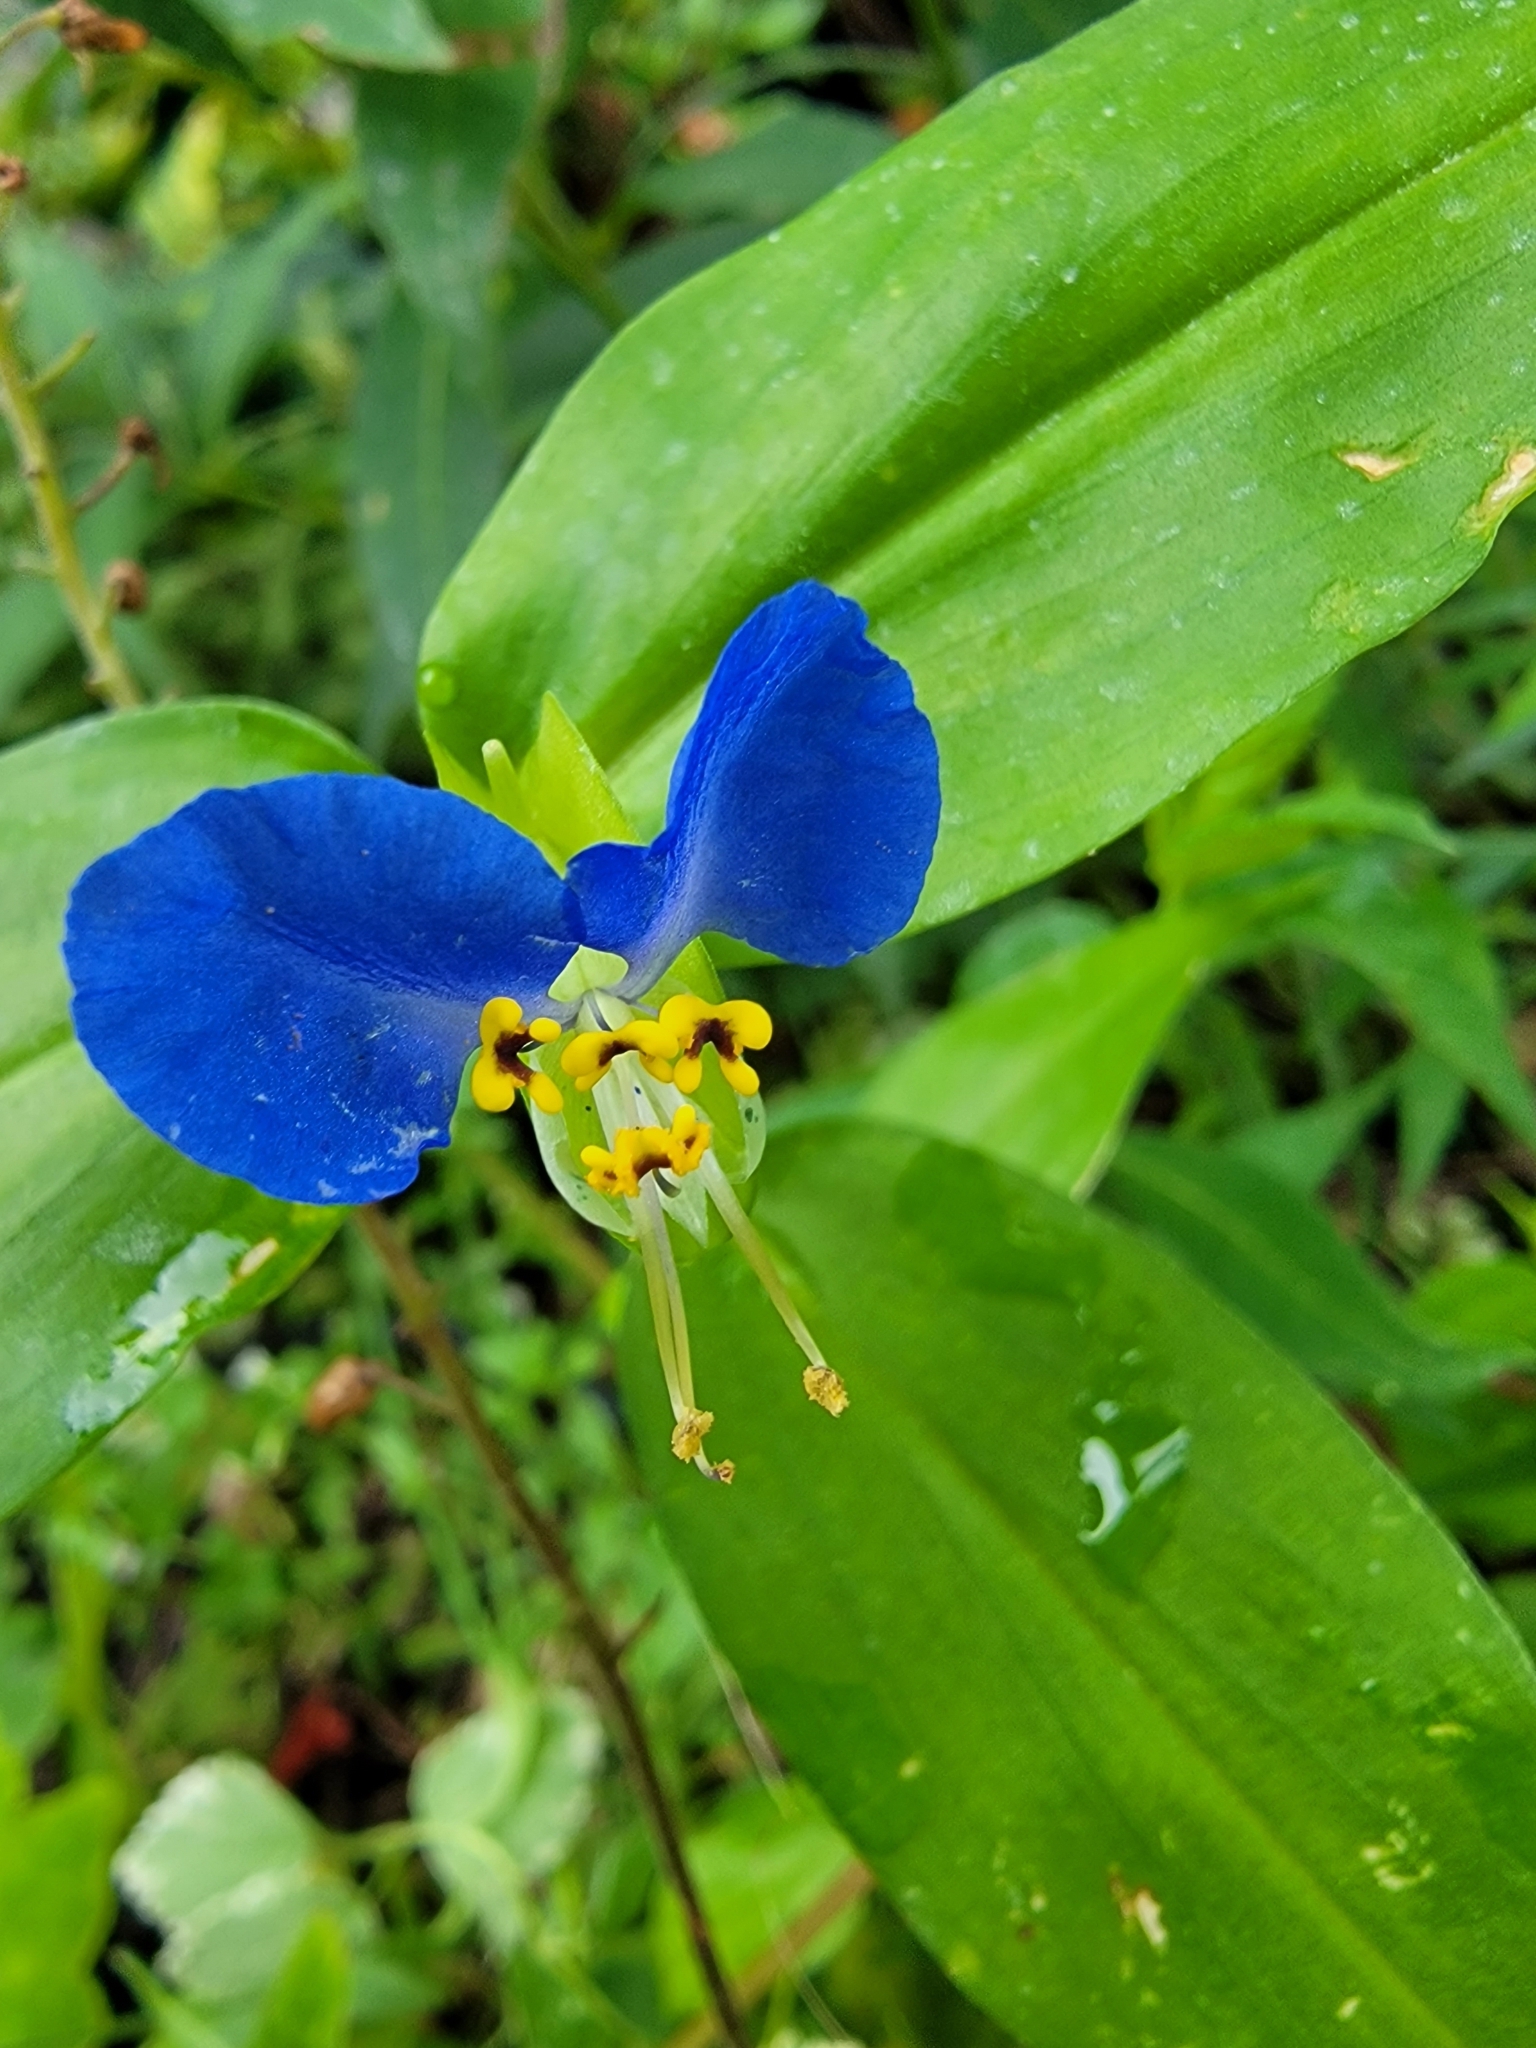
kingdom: Plantae
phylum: Tracheophyta
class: Liliopsida
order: Commelinales
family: Commelinaceae
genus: Commelina
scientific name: Commelina communis
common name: Asiatic dayflower
